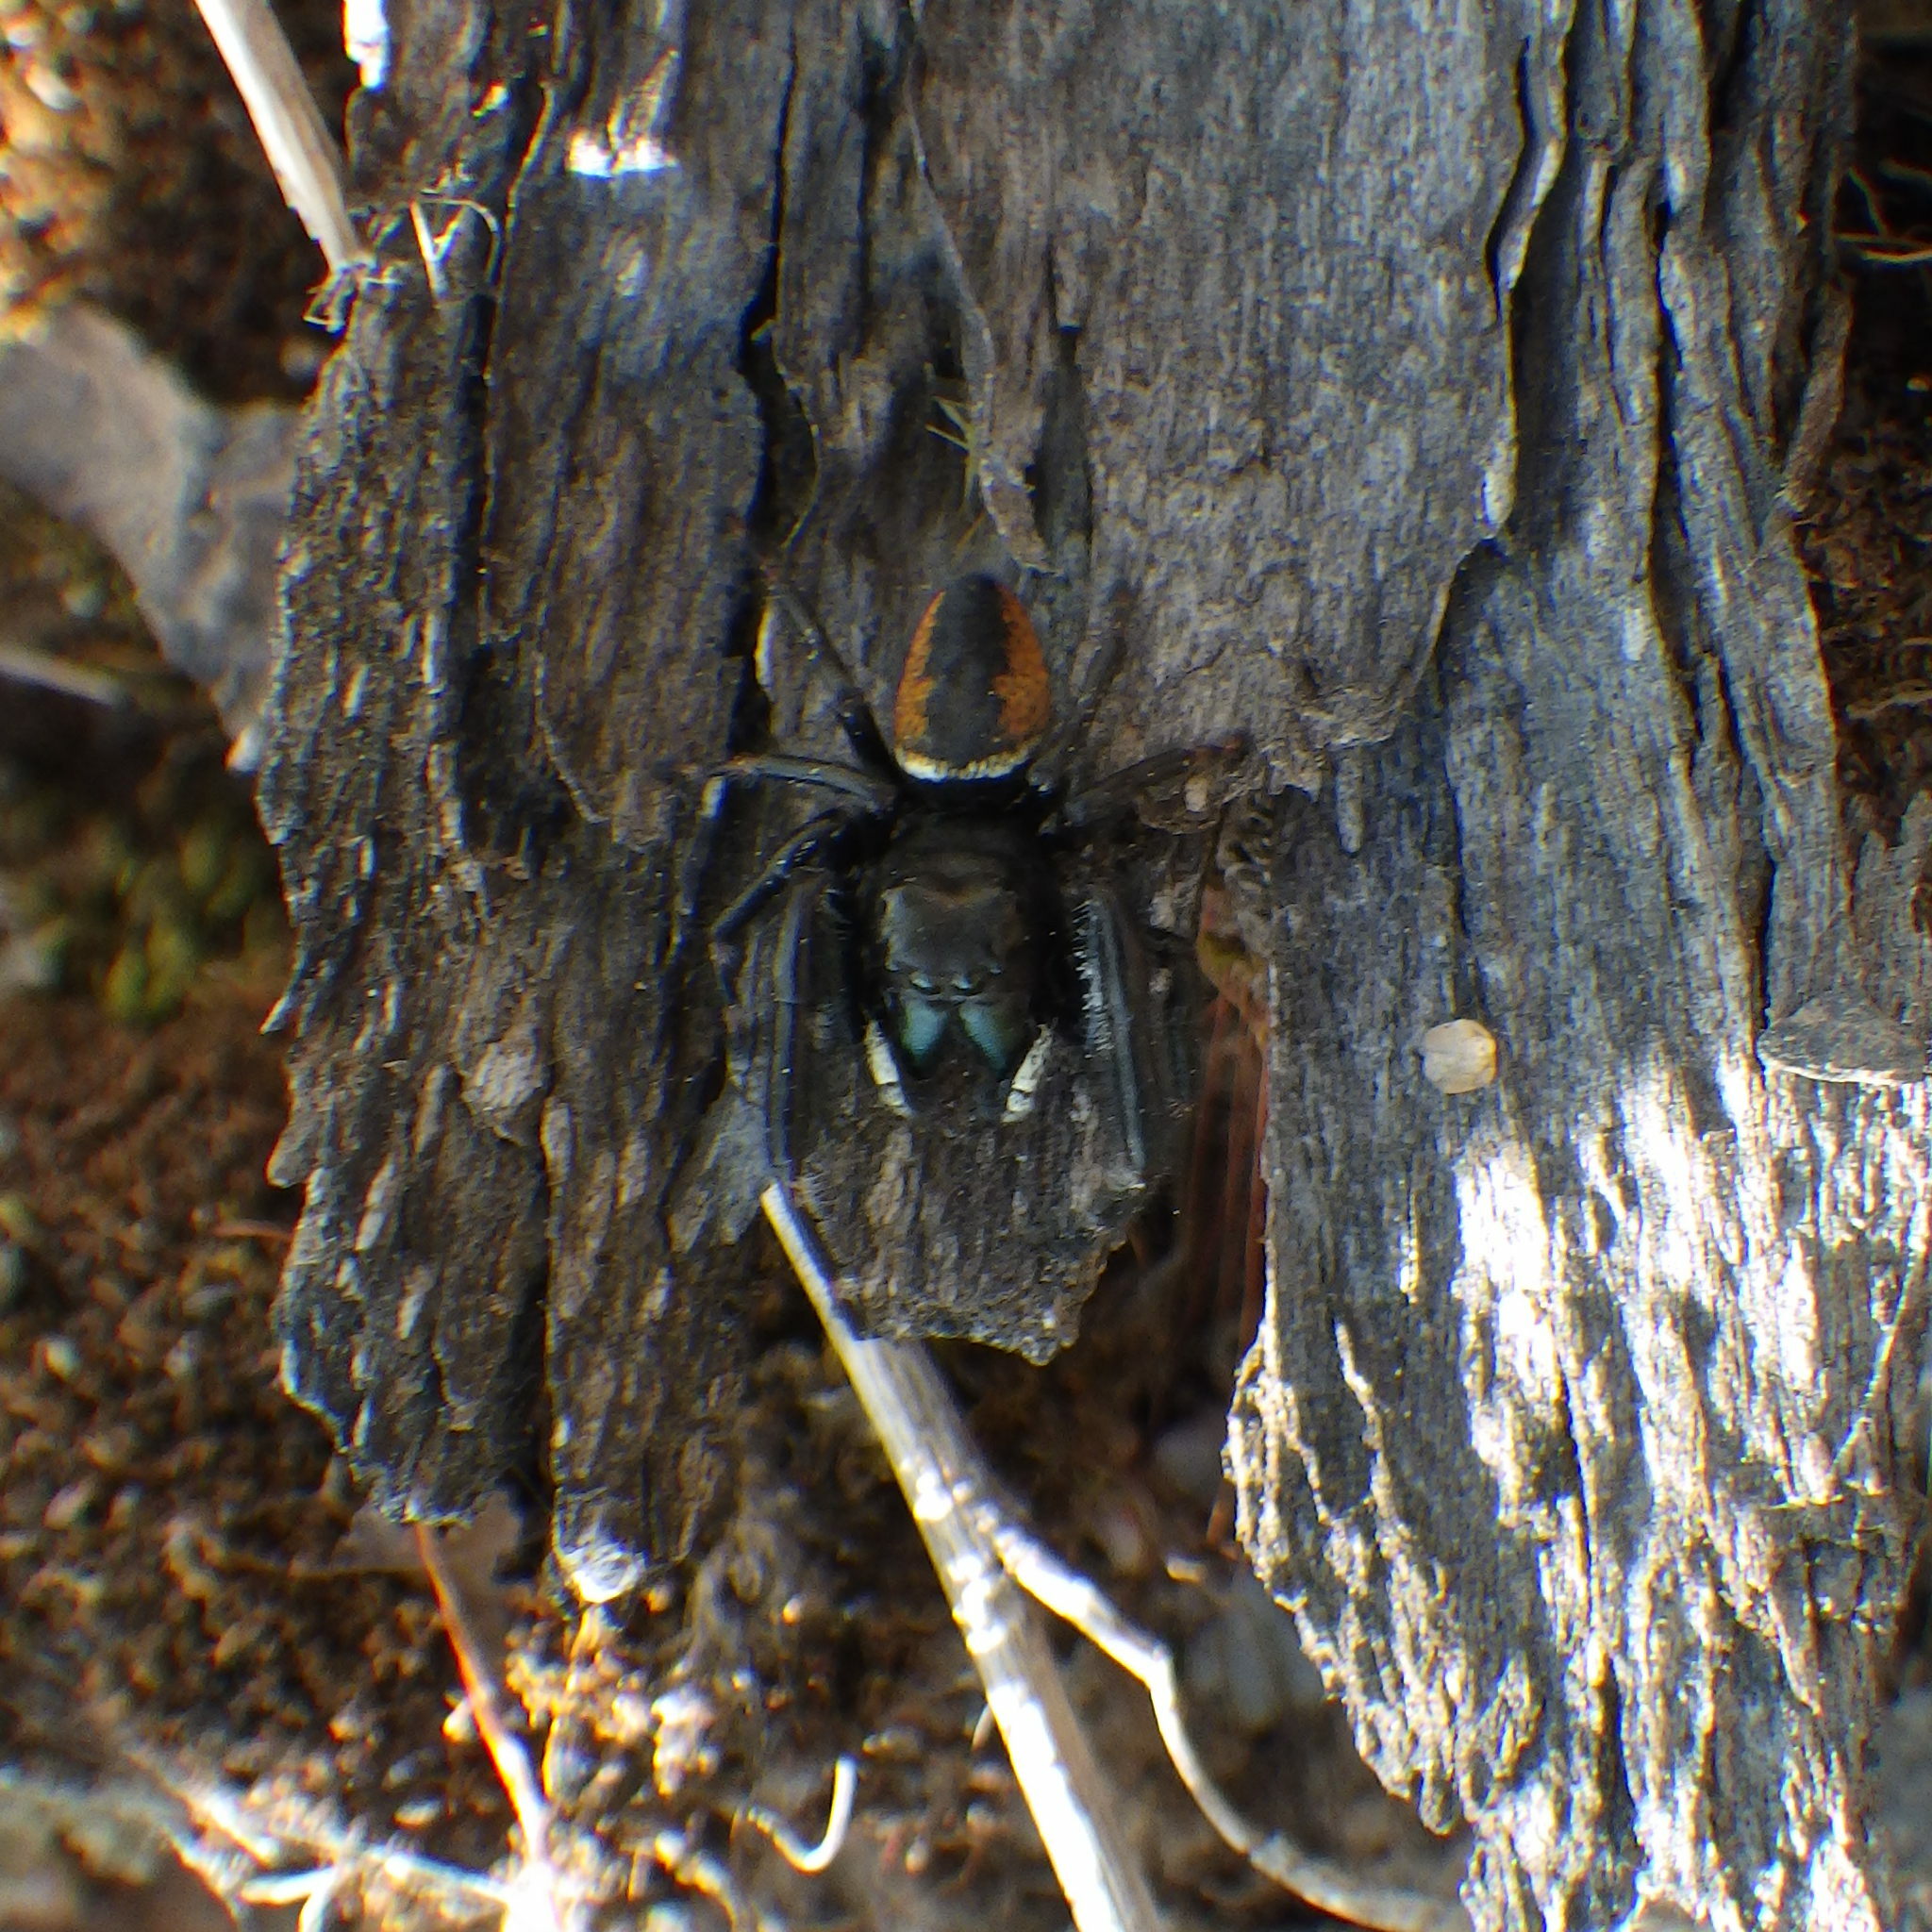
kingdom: Animalia
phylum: Arthropoda
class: Arachnida
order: Araneae
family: Salticidae
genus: Phidippus
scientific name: Phidippus clarus
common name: Brilliant jumping spider
